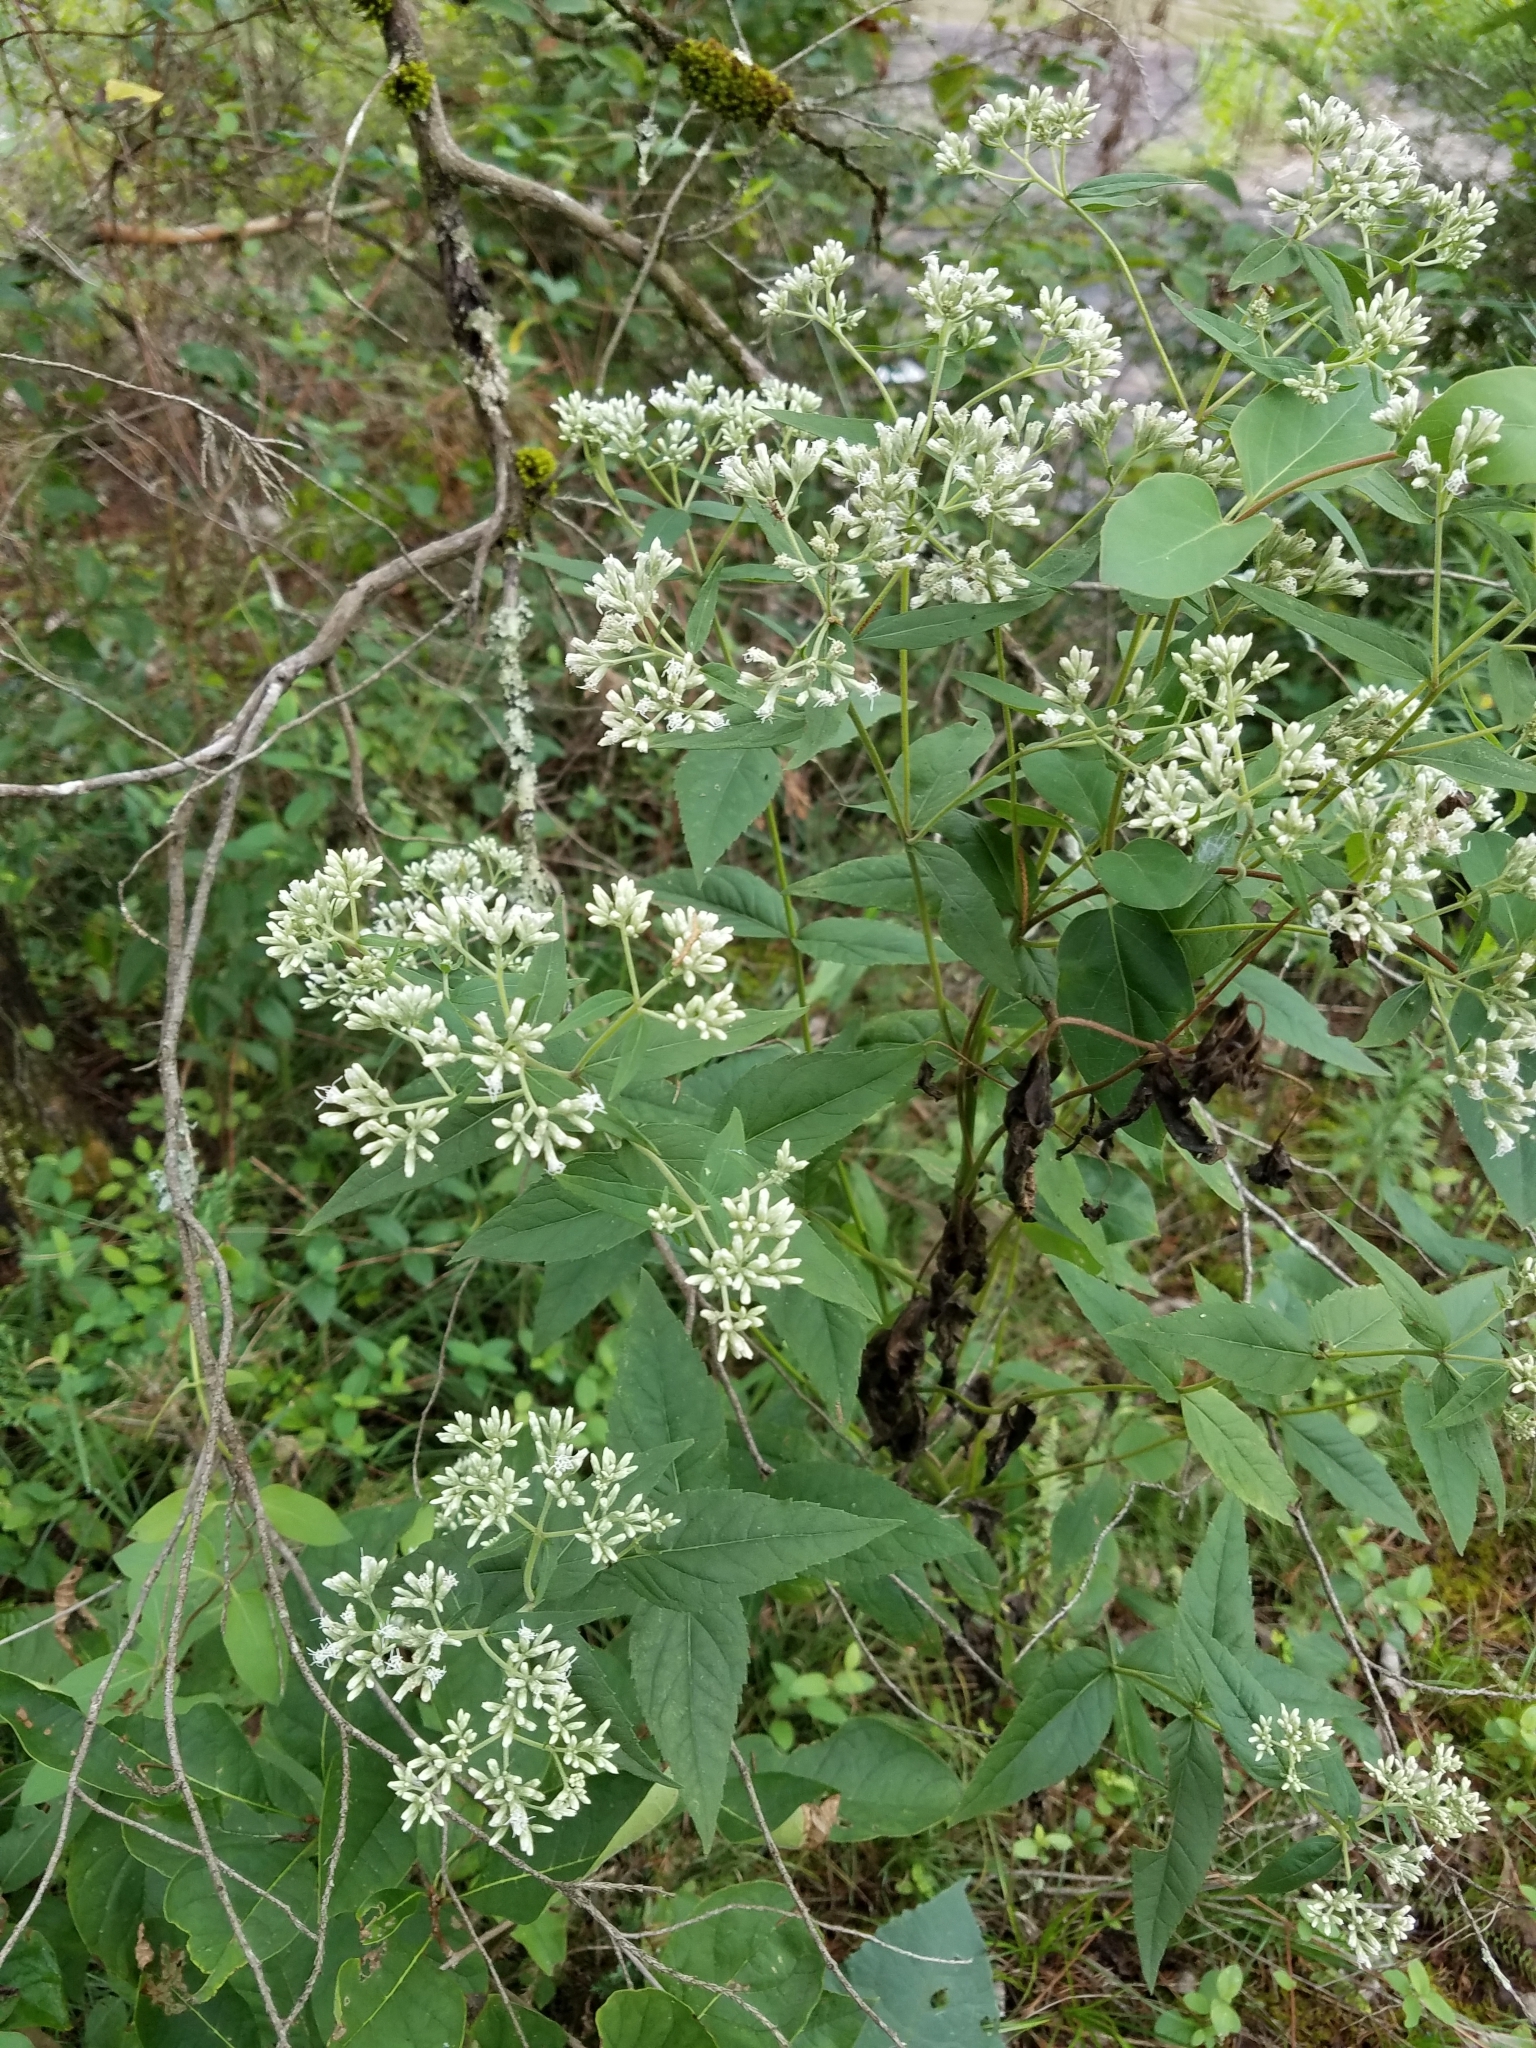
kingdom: Plantae
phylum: Tracheophyta
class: Magnoliopsida
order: Asterales
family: Asteraceae
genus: Eupatorium
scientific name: Eupatorium godfreyanum
